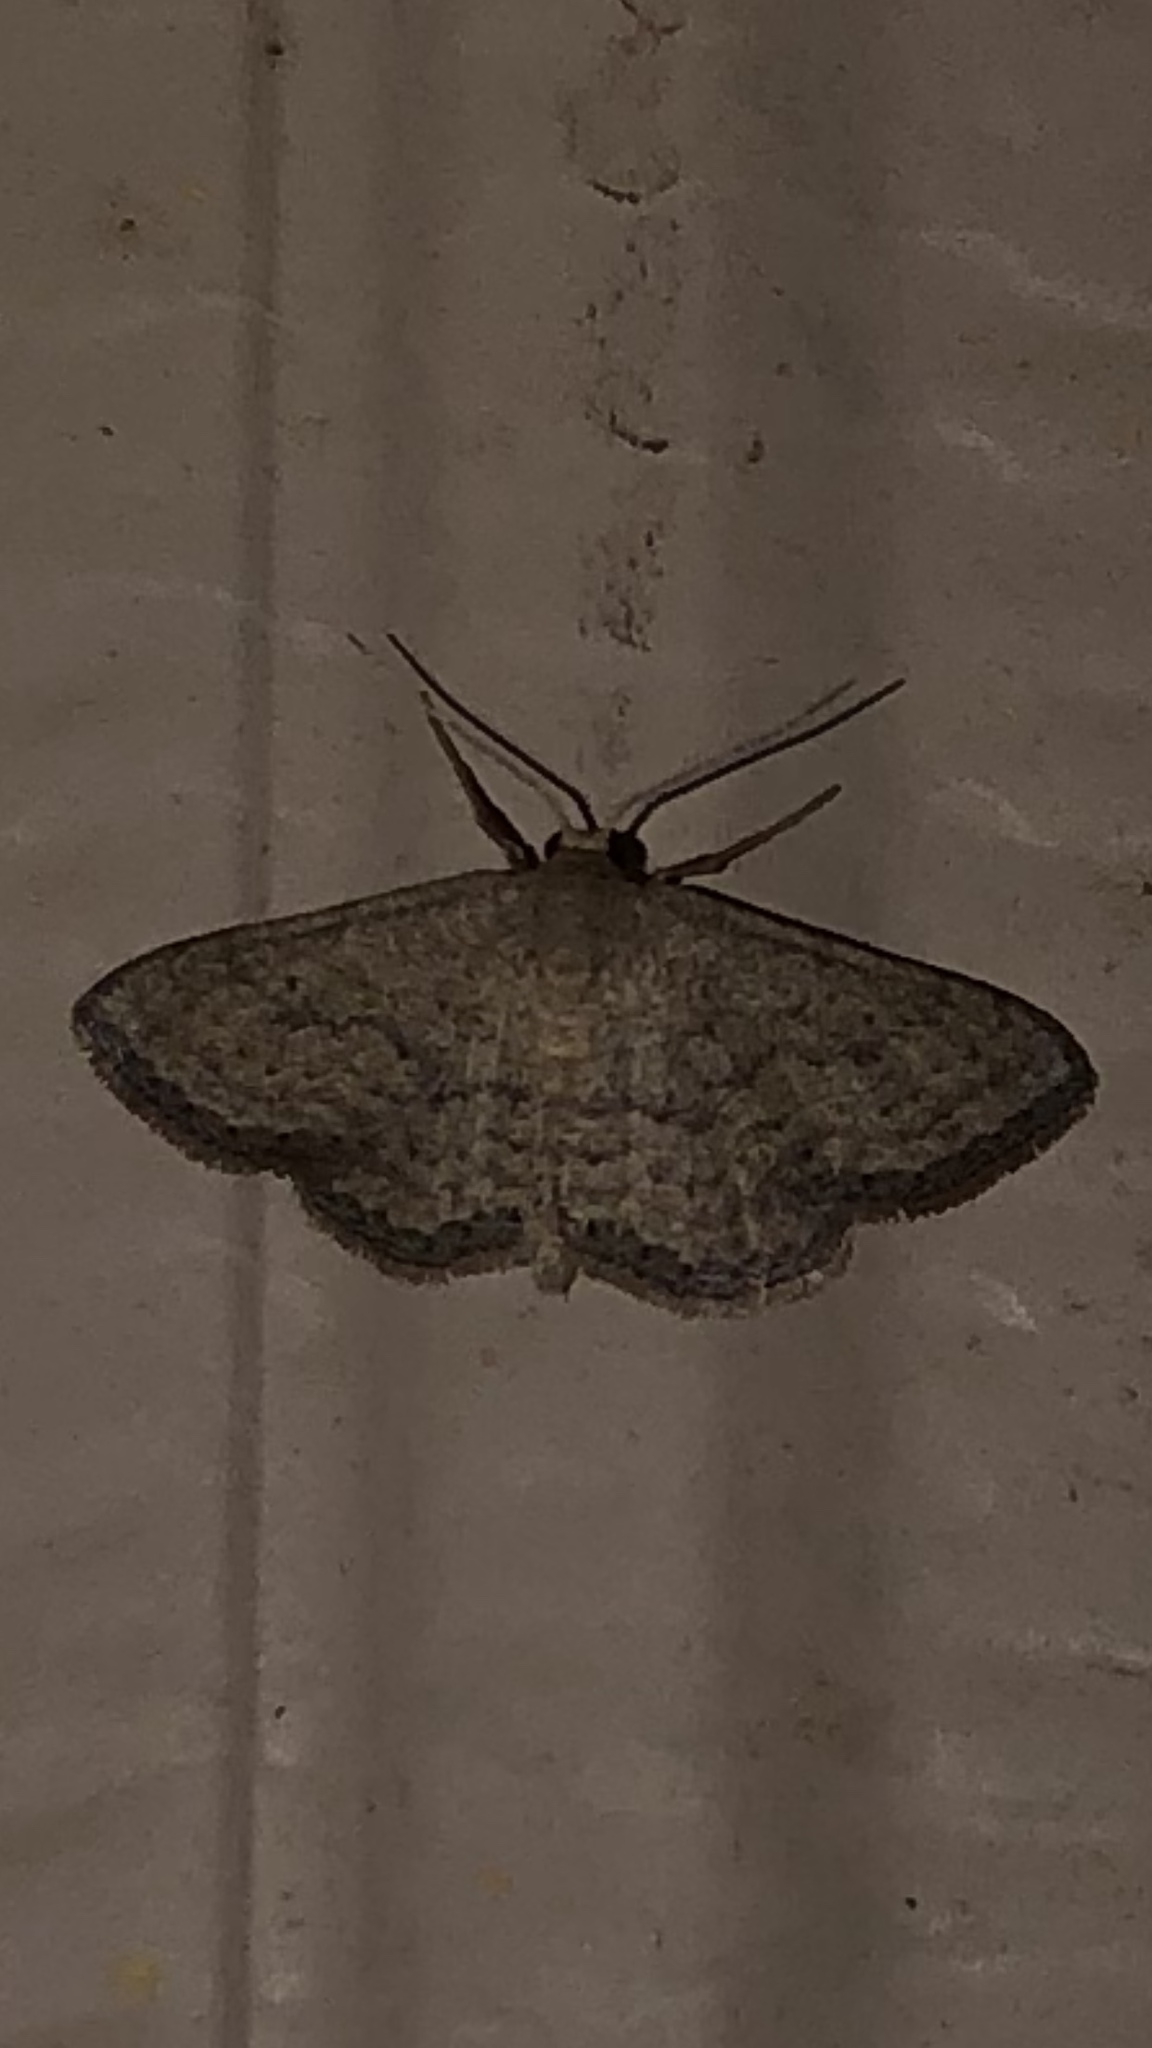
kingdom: Animalia
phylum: Arthropoda
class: Insecta
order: Lepidoptera
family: Geometridae
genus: Lobocleta
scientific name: Lobocleta ossularia
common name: Drab brown wave
